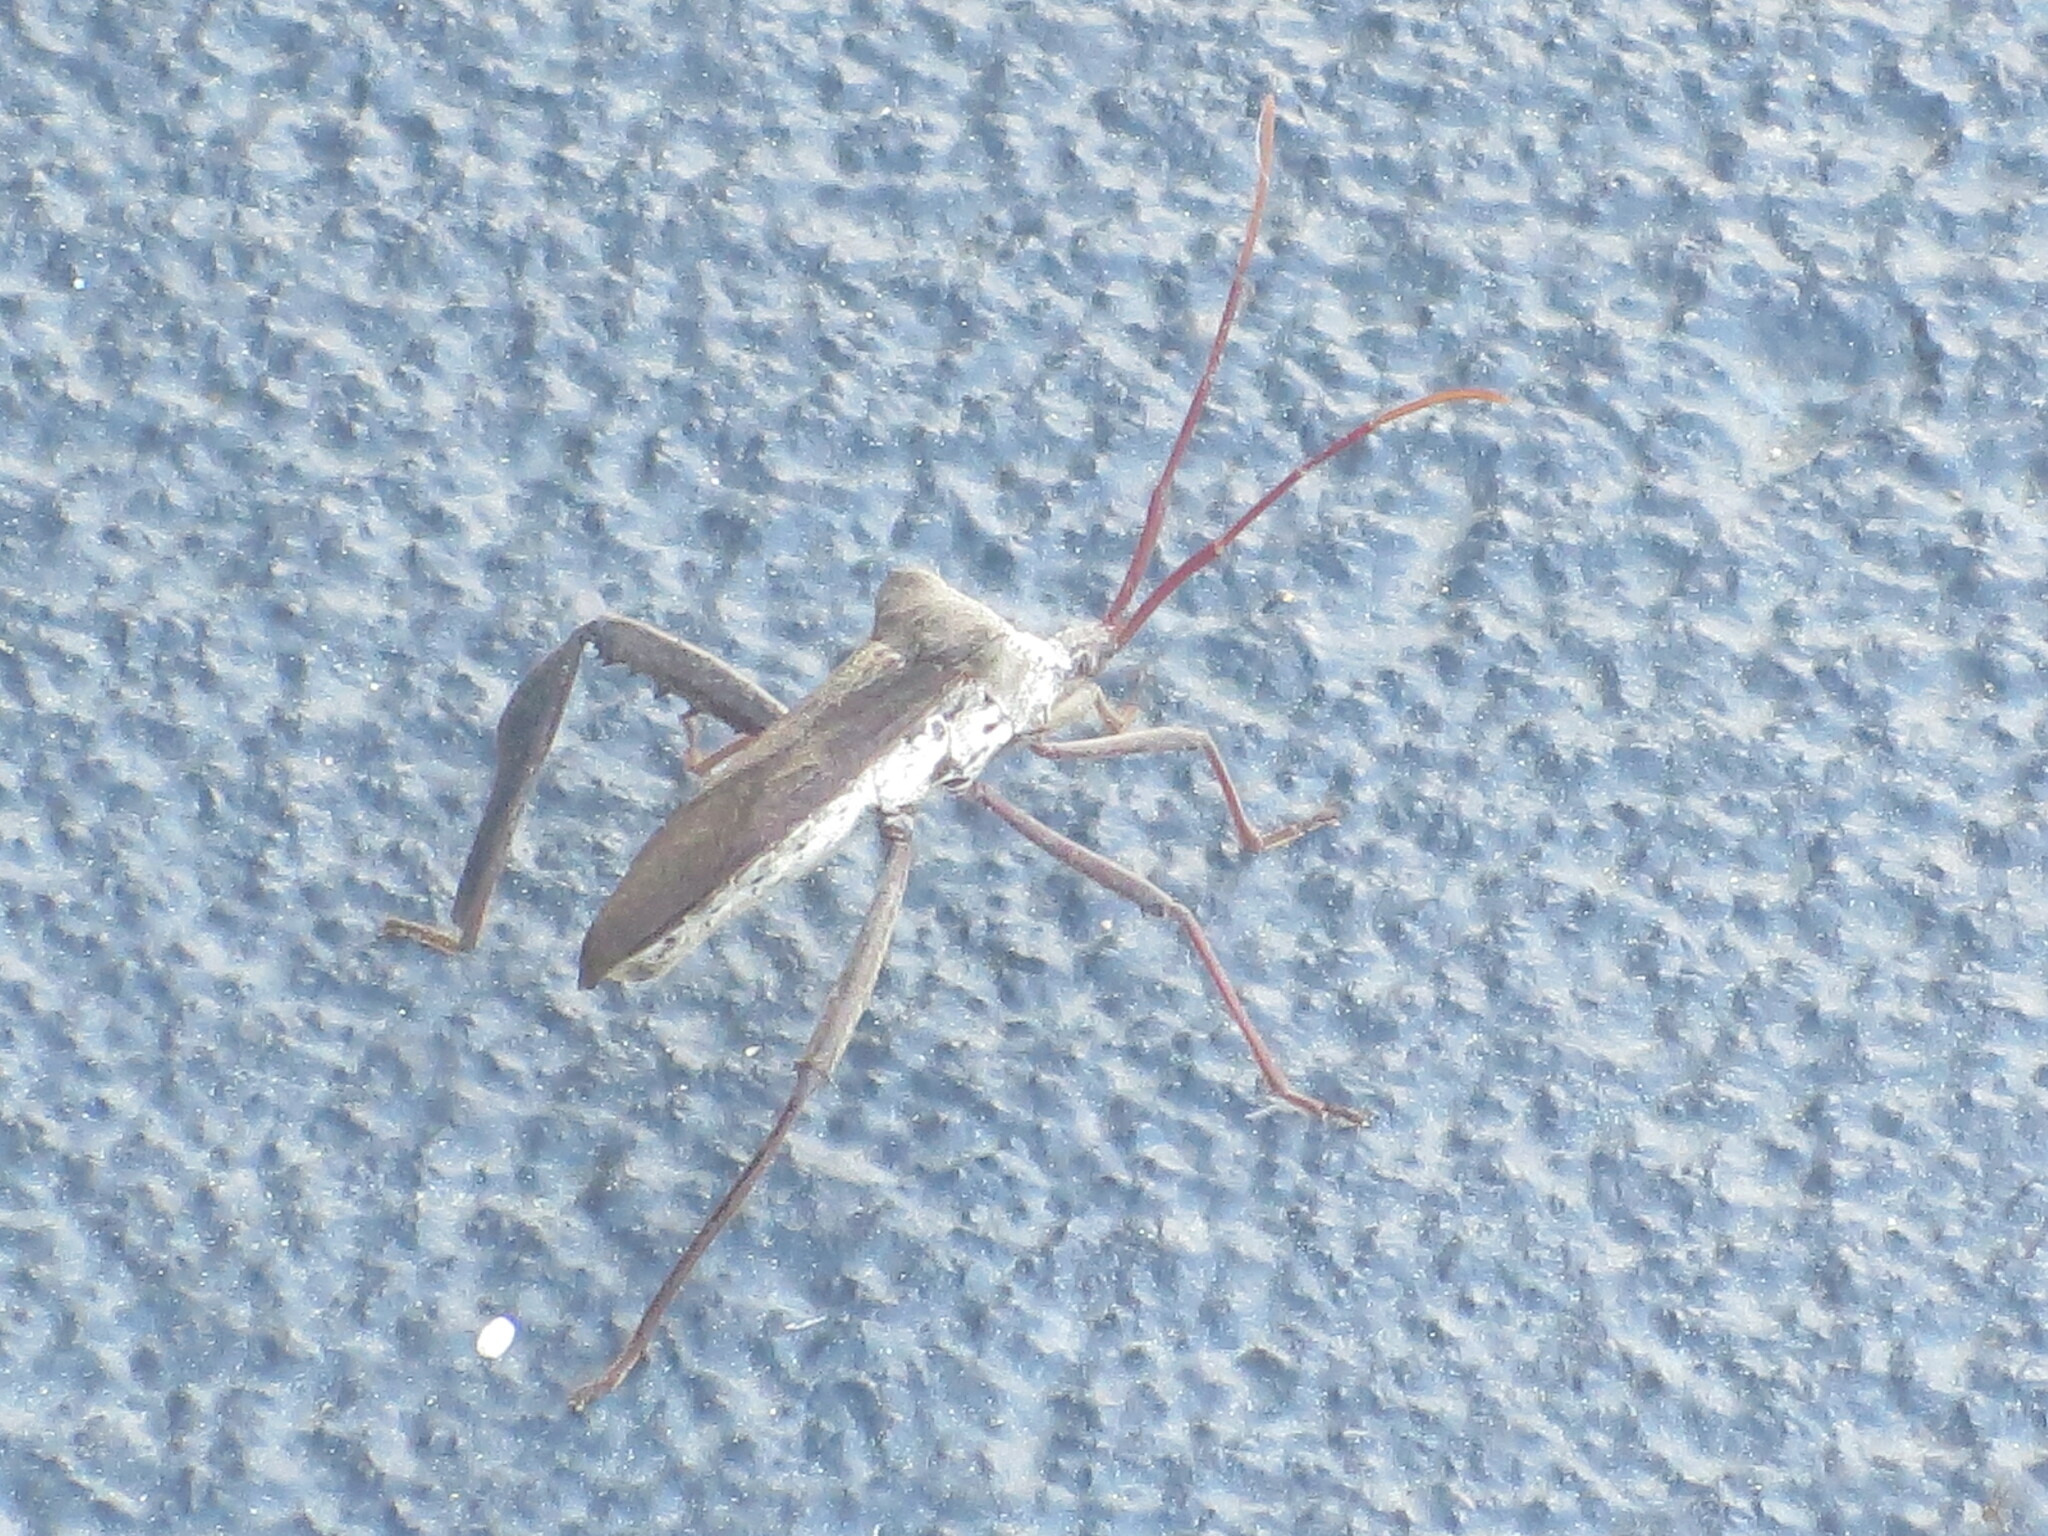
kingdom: Animalia
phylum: Arthropoda
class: Insecta
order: Hemiptera
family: Coreidae
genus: Acanthocephala
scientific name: Acanthocephala declivis
